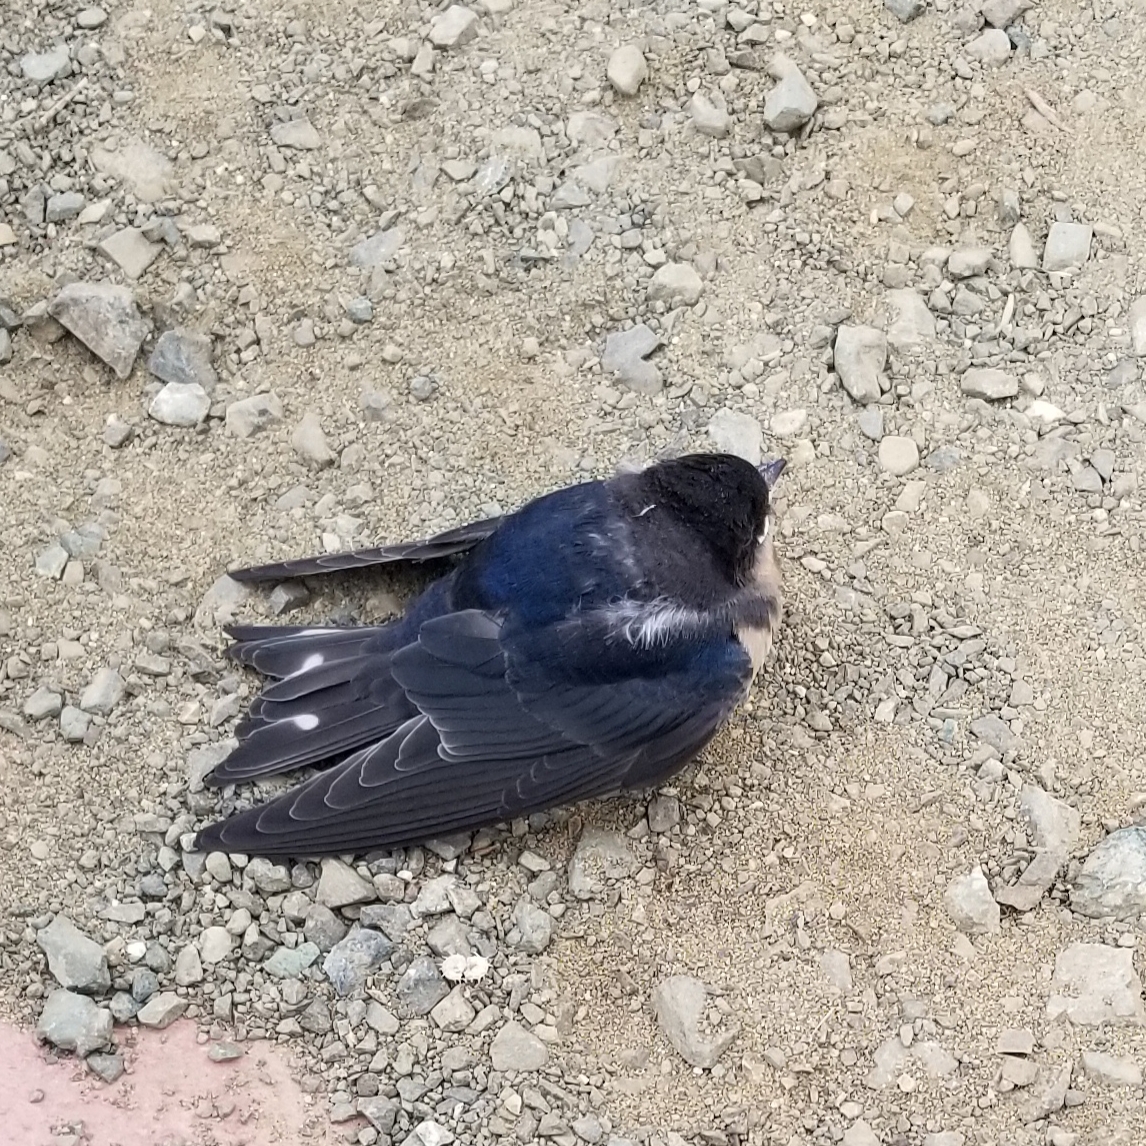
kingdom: Animalia
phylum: Chordata
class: Aves
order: Passeriformes
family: Hirundinidae
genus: Hirundo
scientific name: Hirundo rustica
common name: Barn swallow
